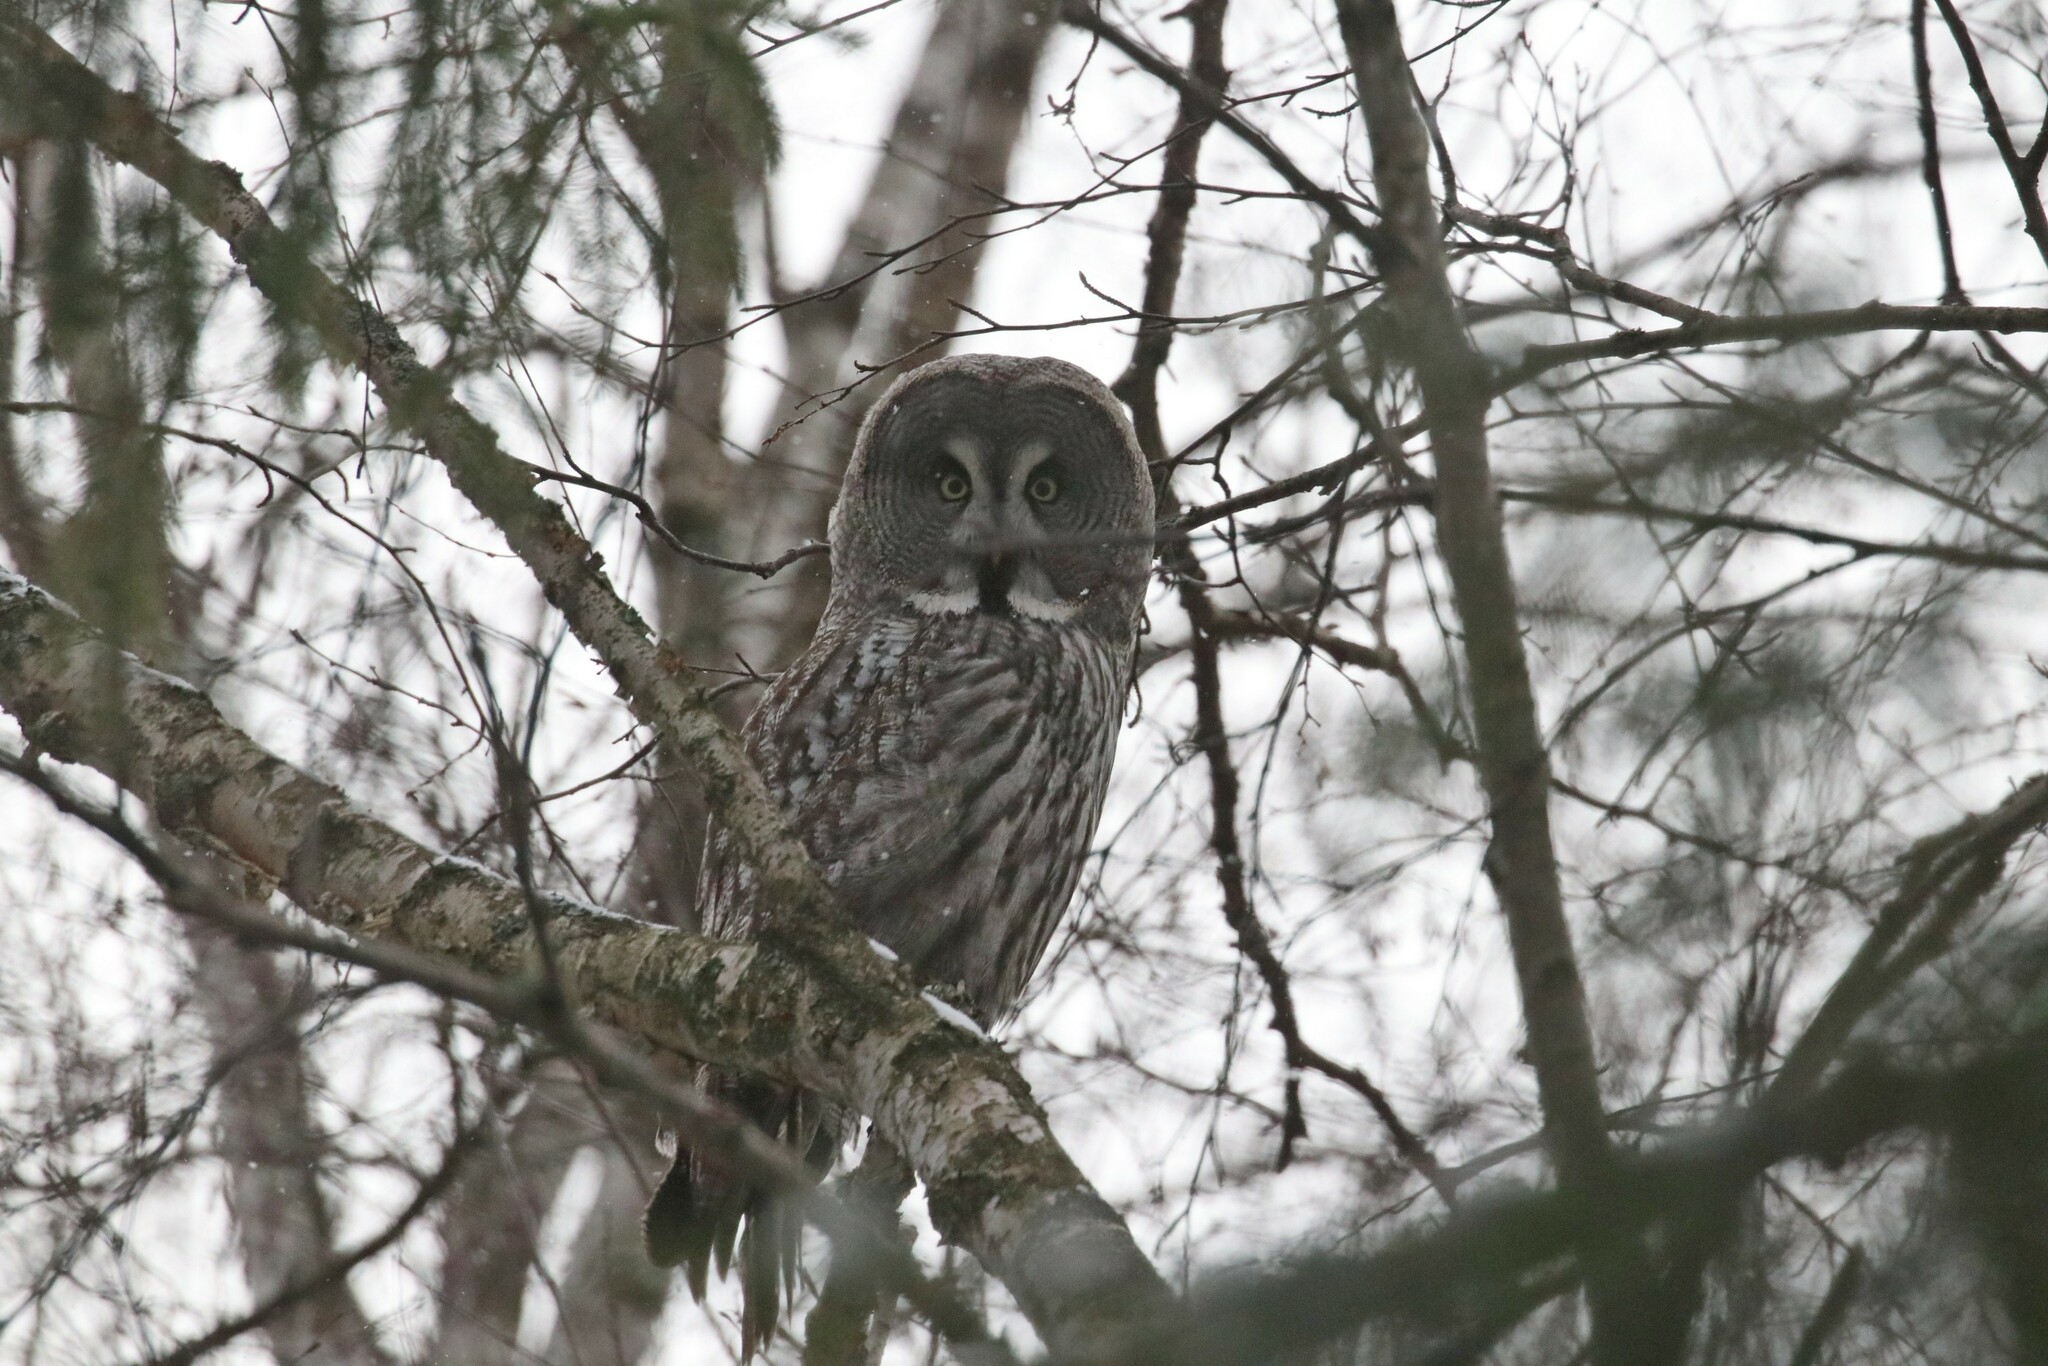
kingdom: Animalia
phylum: Chordata
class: Aves
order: Strigiformes
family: Strigidae
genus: Strix
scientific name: Strix nebulosa
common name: Great grey owl
